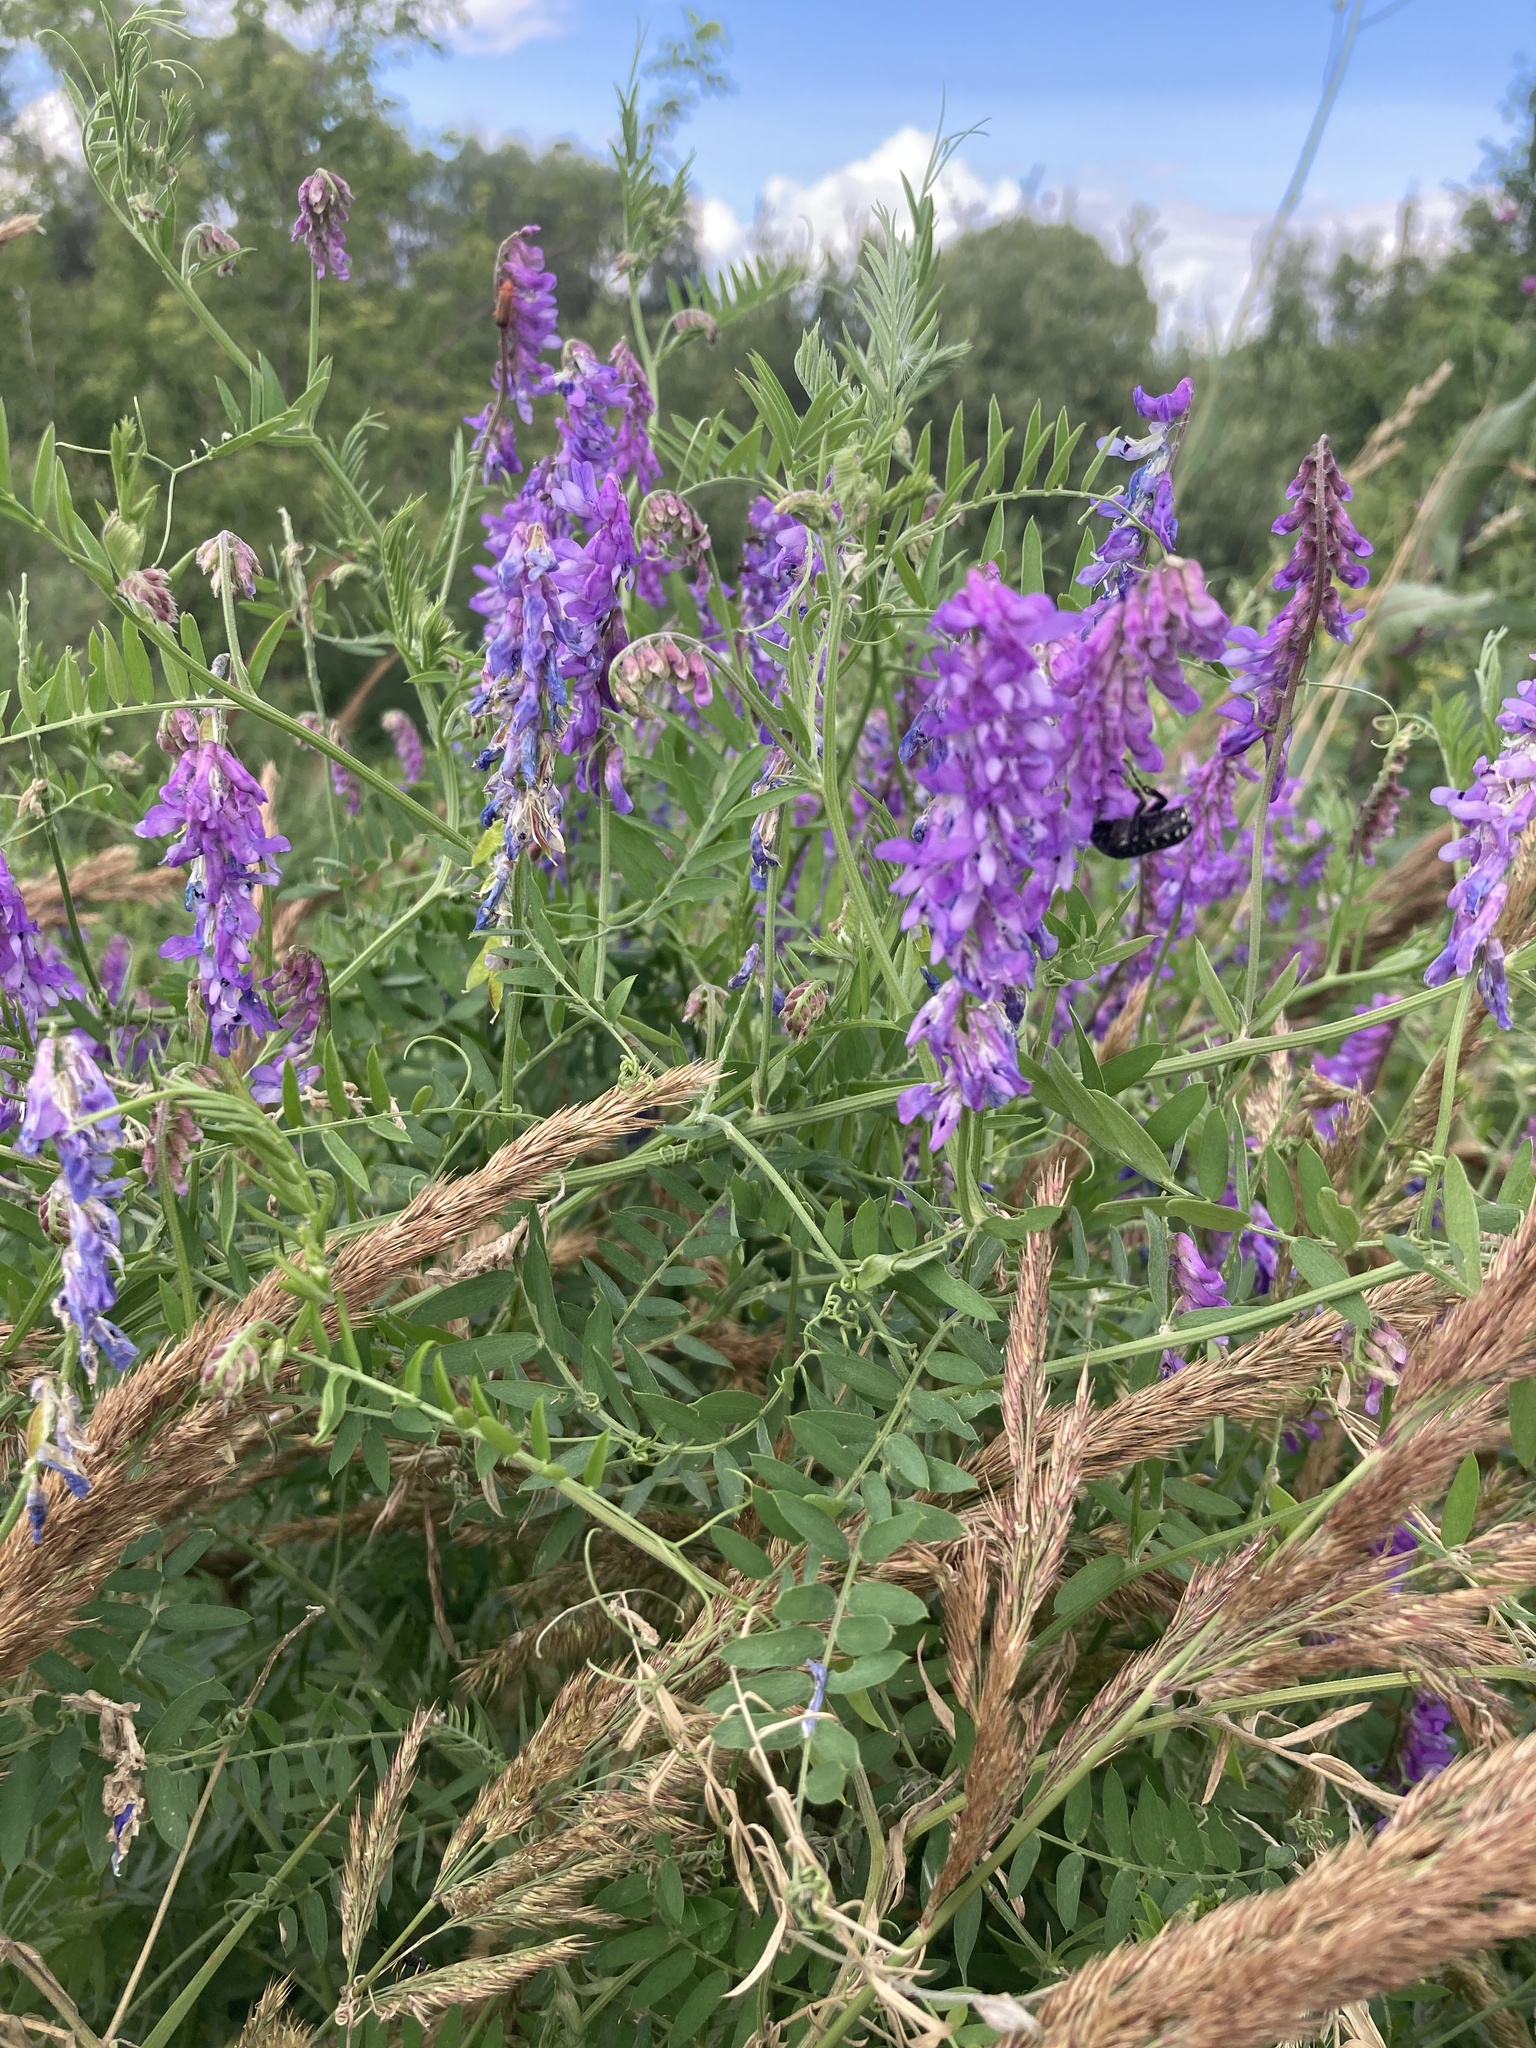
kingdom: Plantae
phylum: Tracheophyta
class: Magnoliopsida
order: Fabales
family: Fabaceae
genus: Vicia
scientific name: Vicia cracca
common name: Bird vetch
